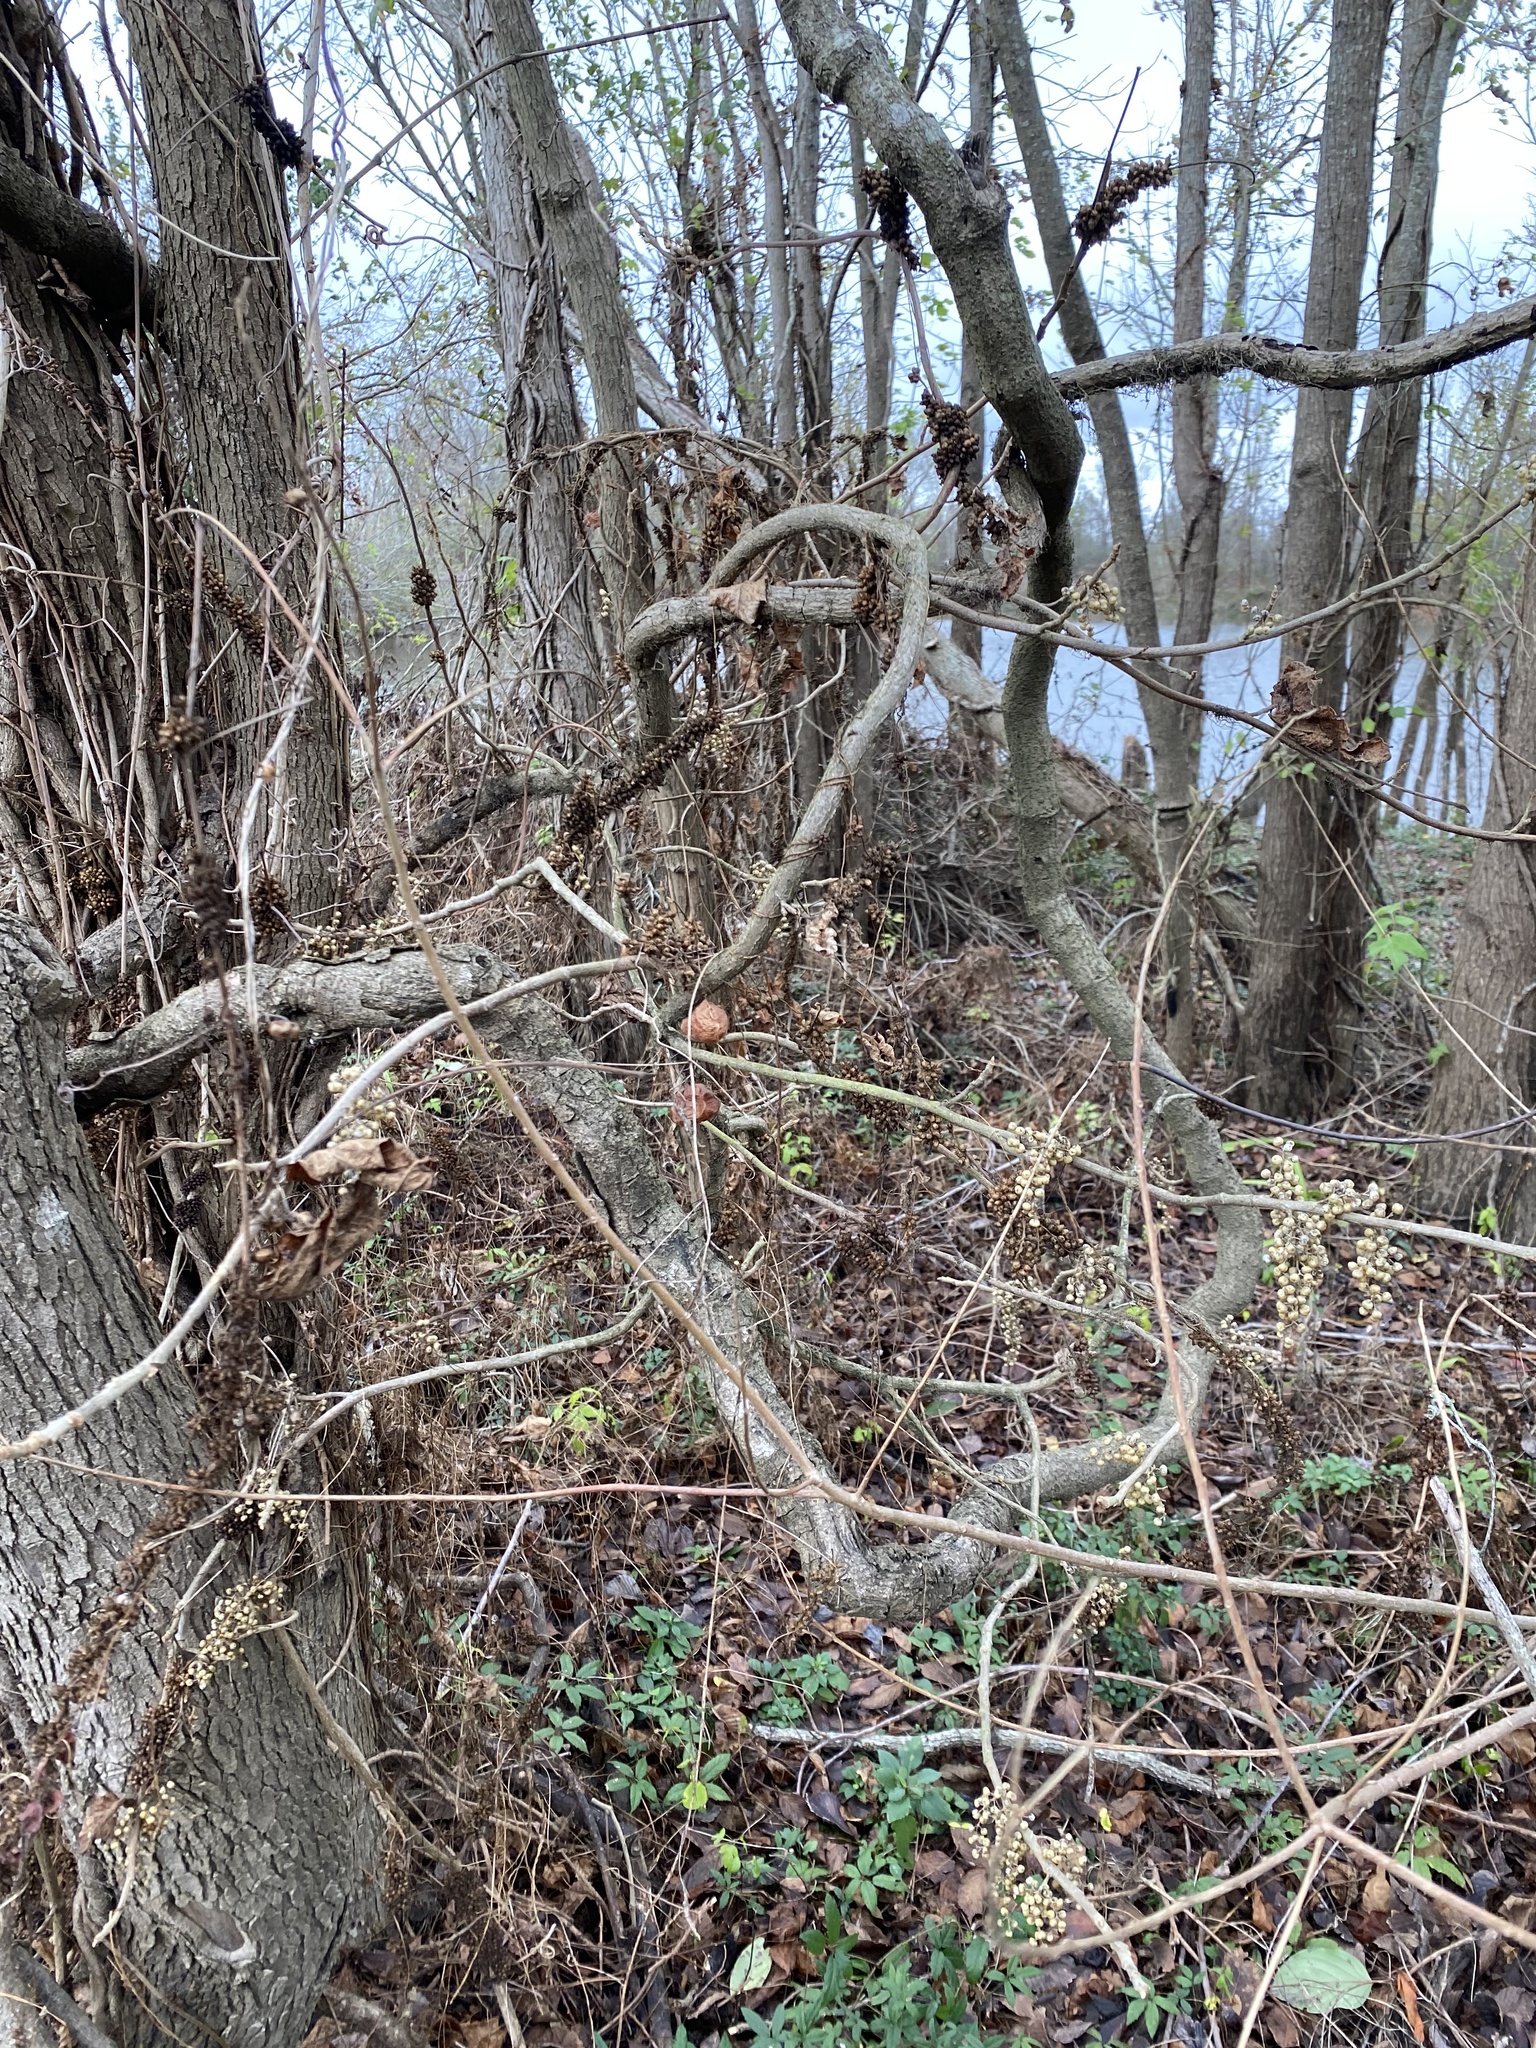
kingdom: Plantae
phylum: Tracheophyta
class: Magnoliopsida
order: Sapindales
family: Anacardiaceae
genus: Toxicodendron
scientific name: Toxicodendron radicans
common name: Poison ivy
